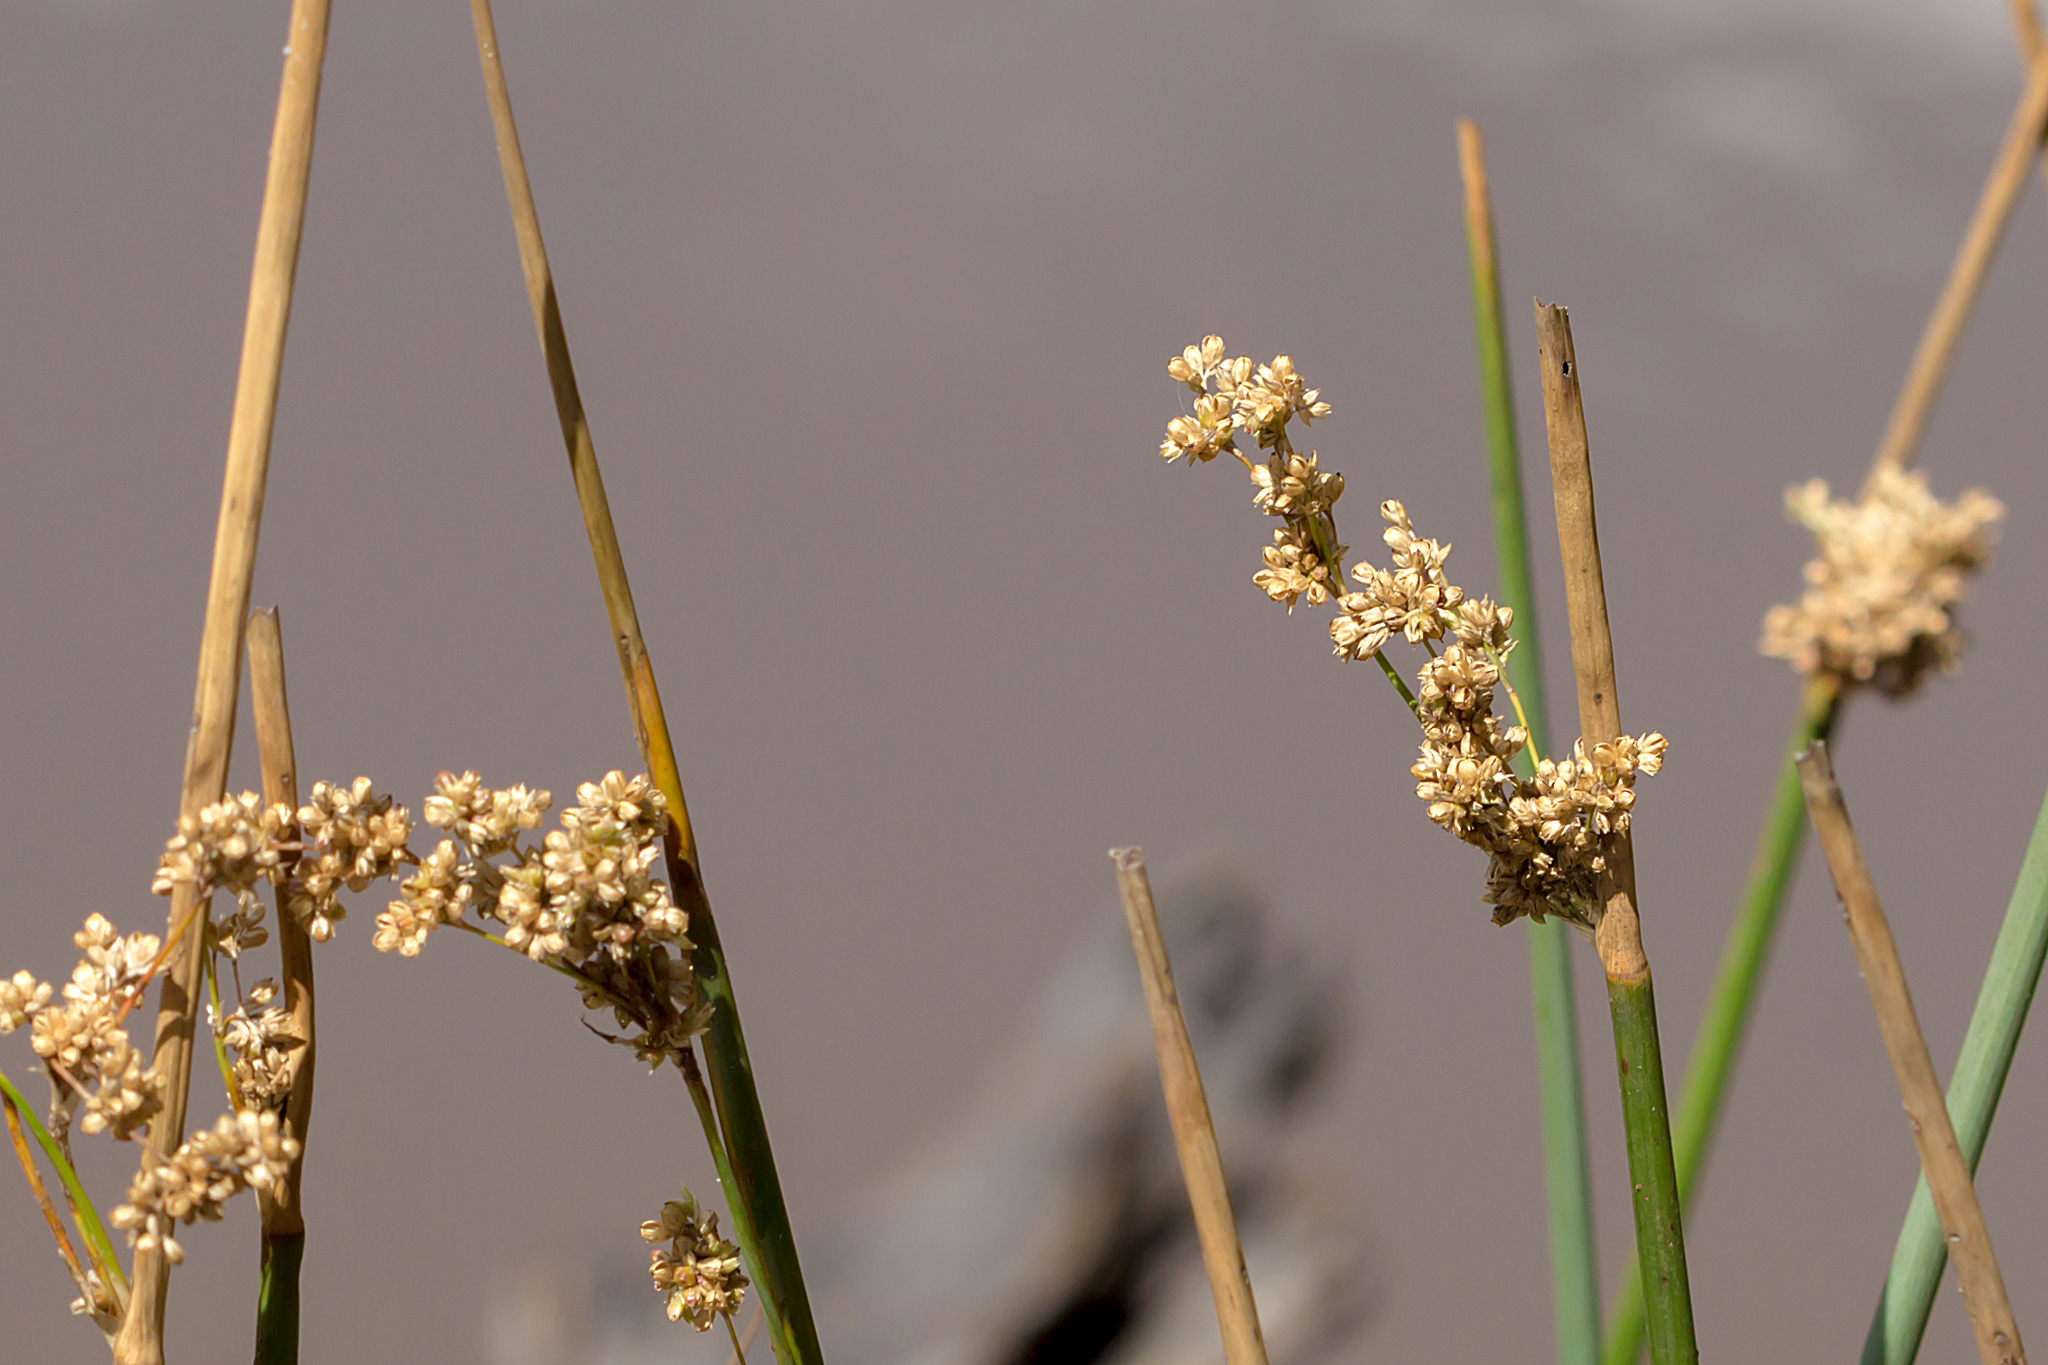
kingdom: Plantae
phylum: Tracheophyta
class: Liliopsida
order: Poales
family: Juncaceae
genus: Juncus
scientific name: Juncus procerus
